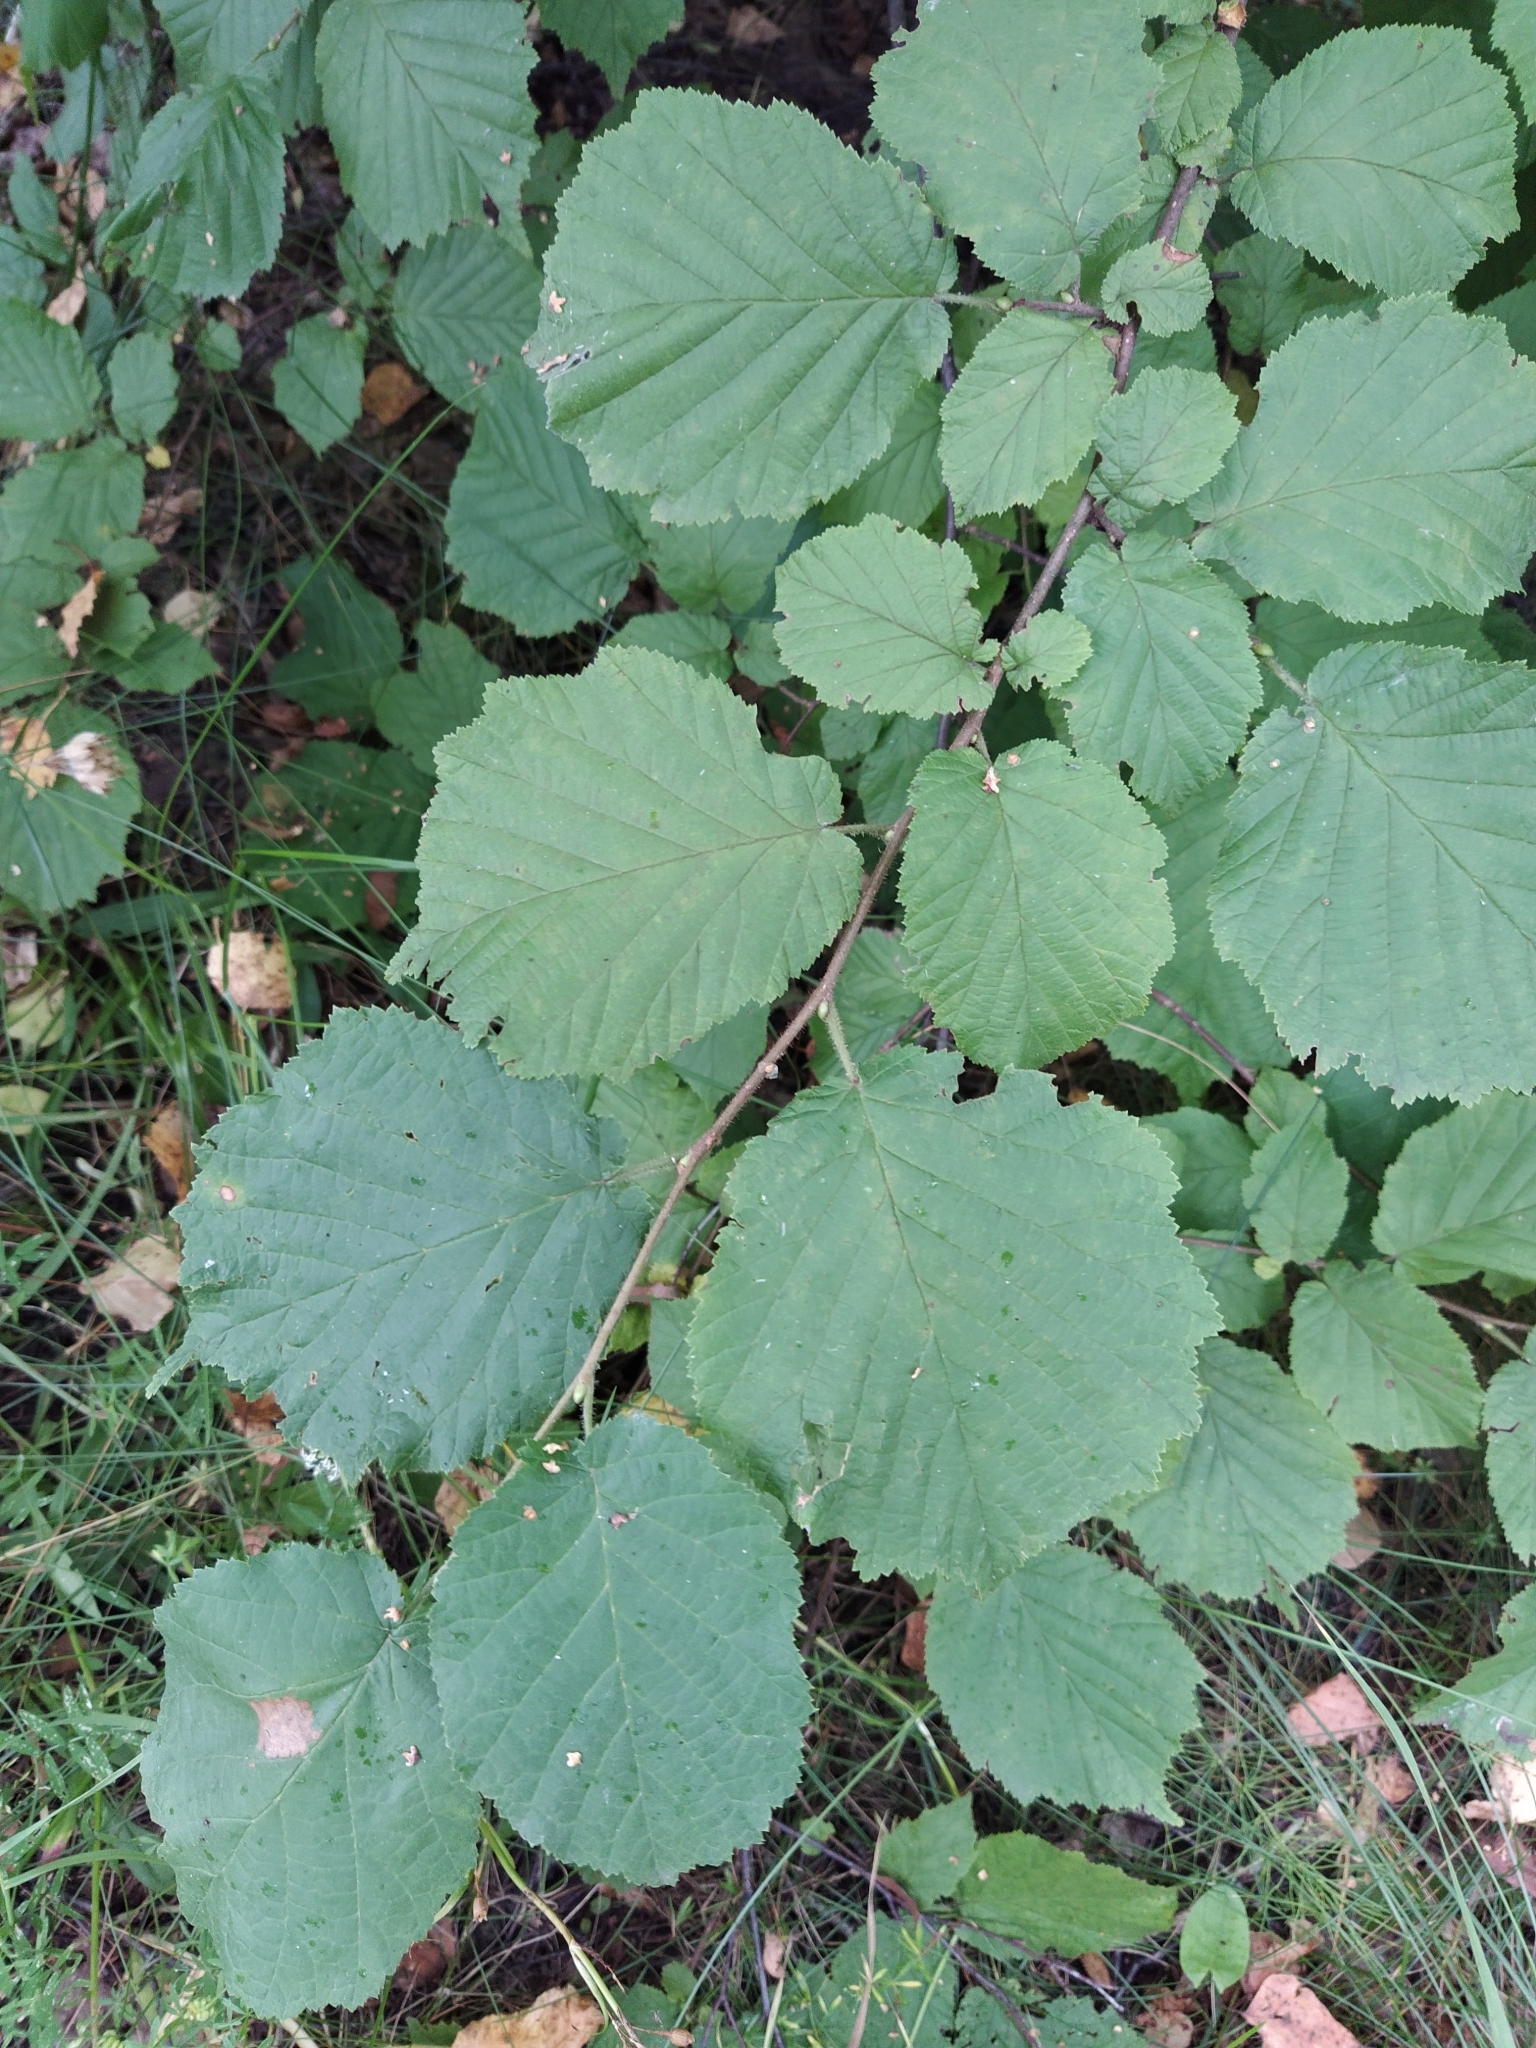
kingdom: Plantae
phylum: Tracheophyta
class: Magnoliopsida
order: Fagales
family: Betulaceae
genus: Corylus
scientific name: Corylus avellana
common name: European hazel
